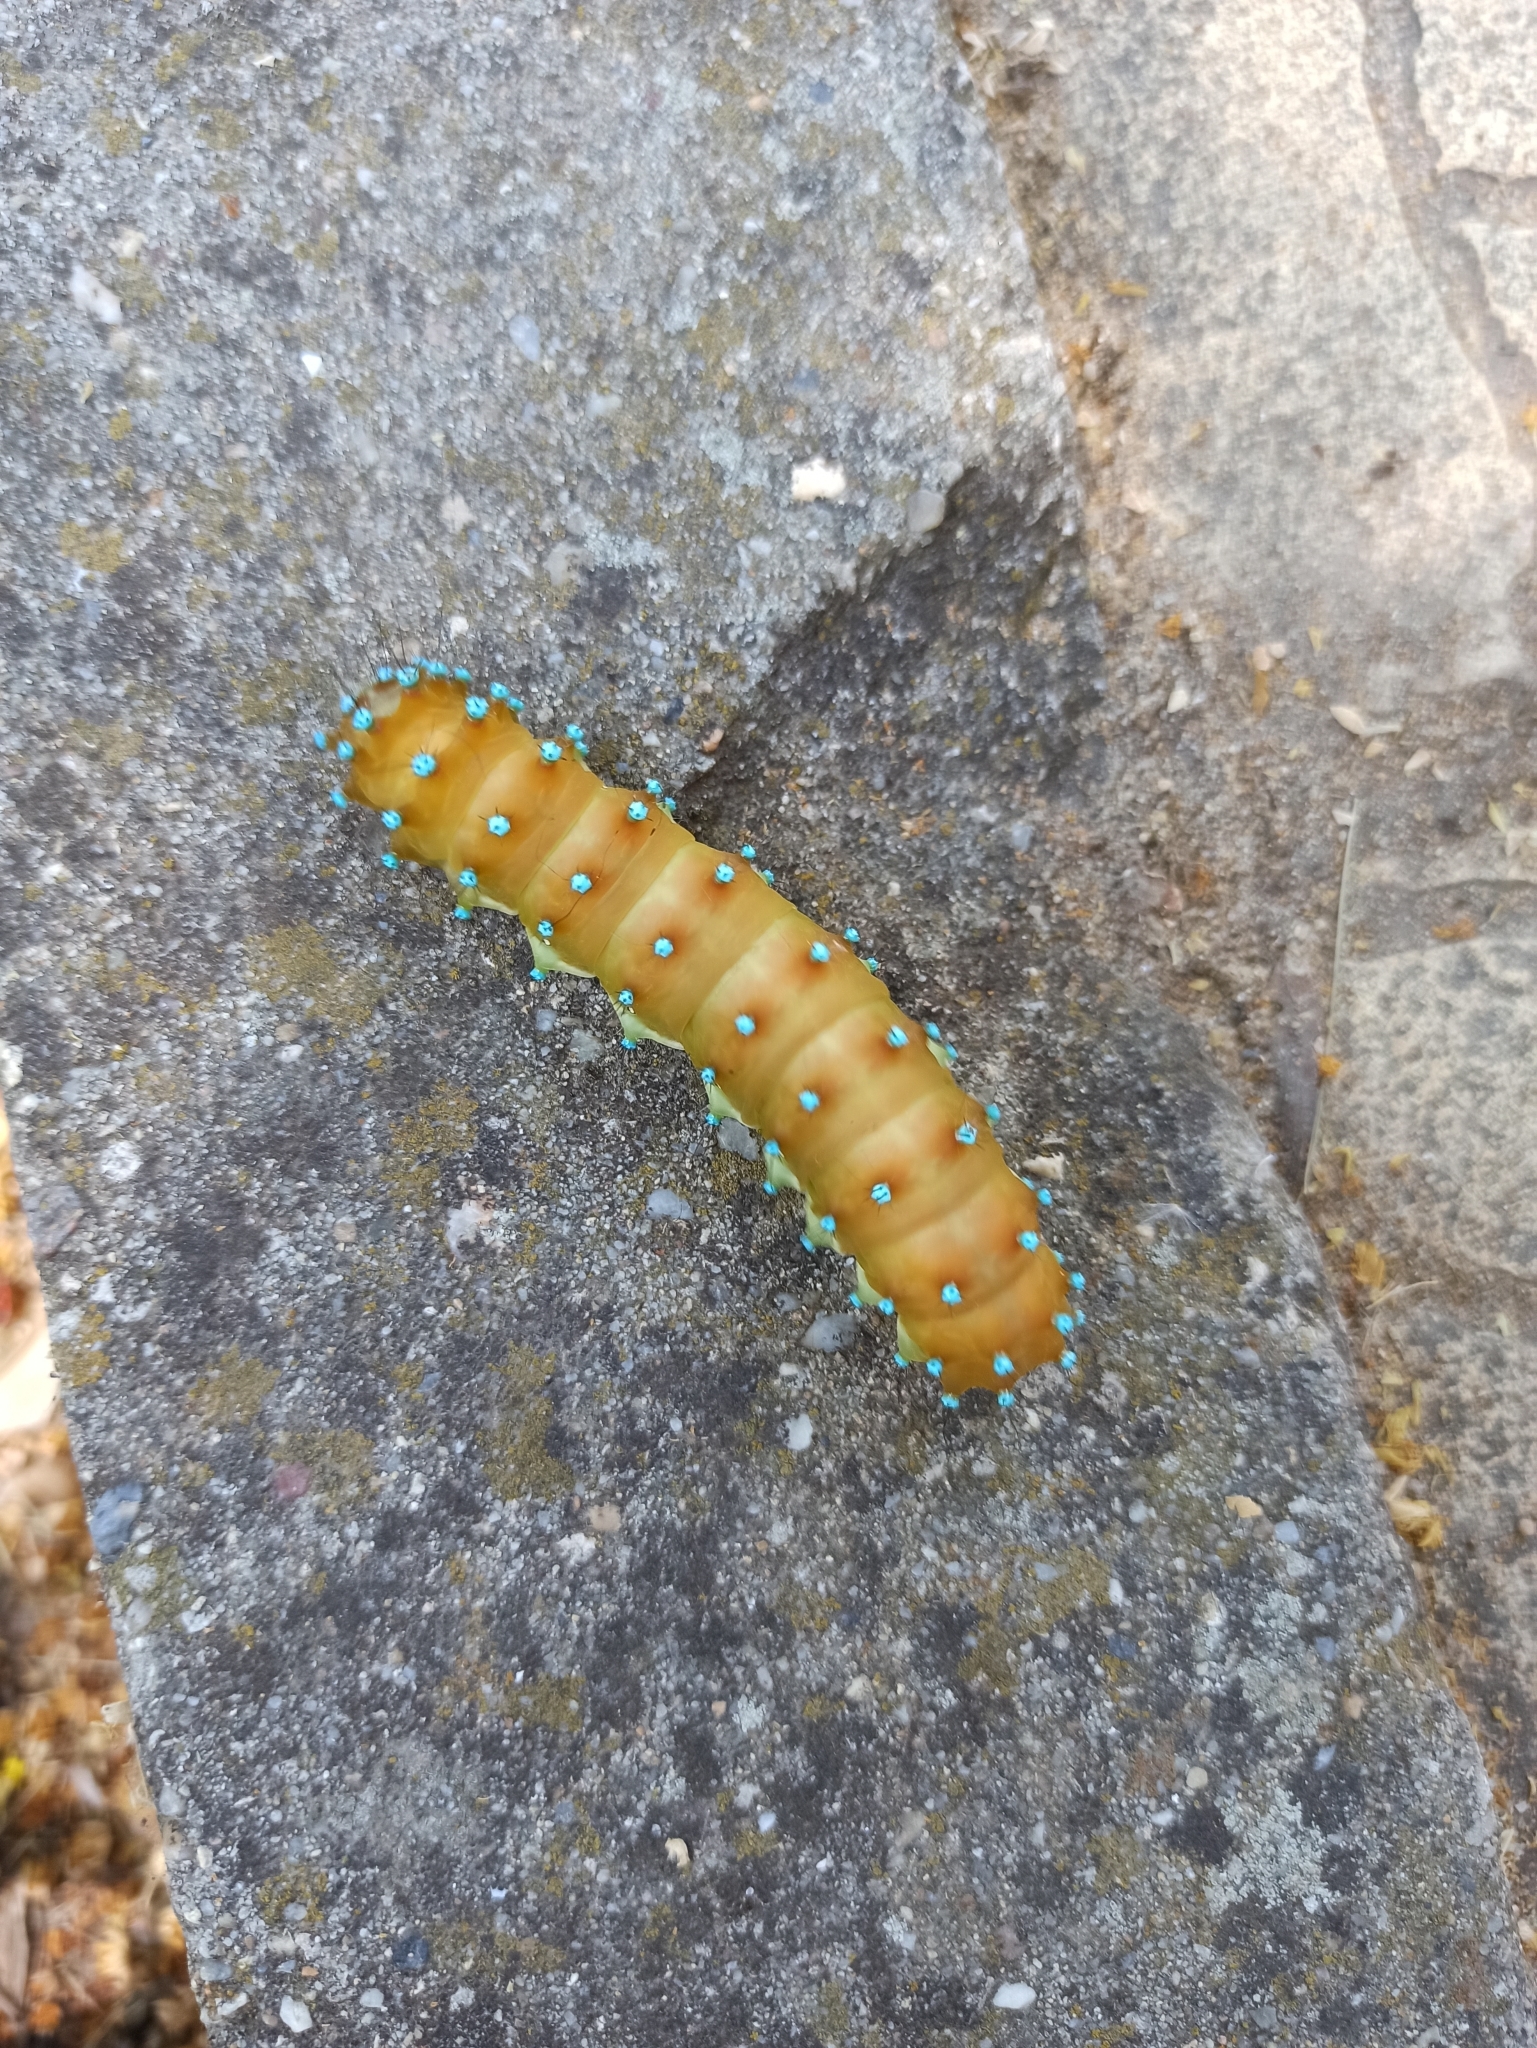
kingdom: Animalia
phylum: Arthropoda
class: Insecta
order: Lepidoptera
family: Saturniidae
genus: Saturnia
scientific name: Saturnia pyri
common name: Great peacock moth
